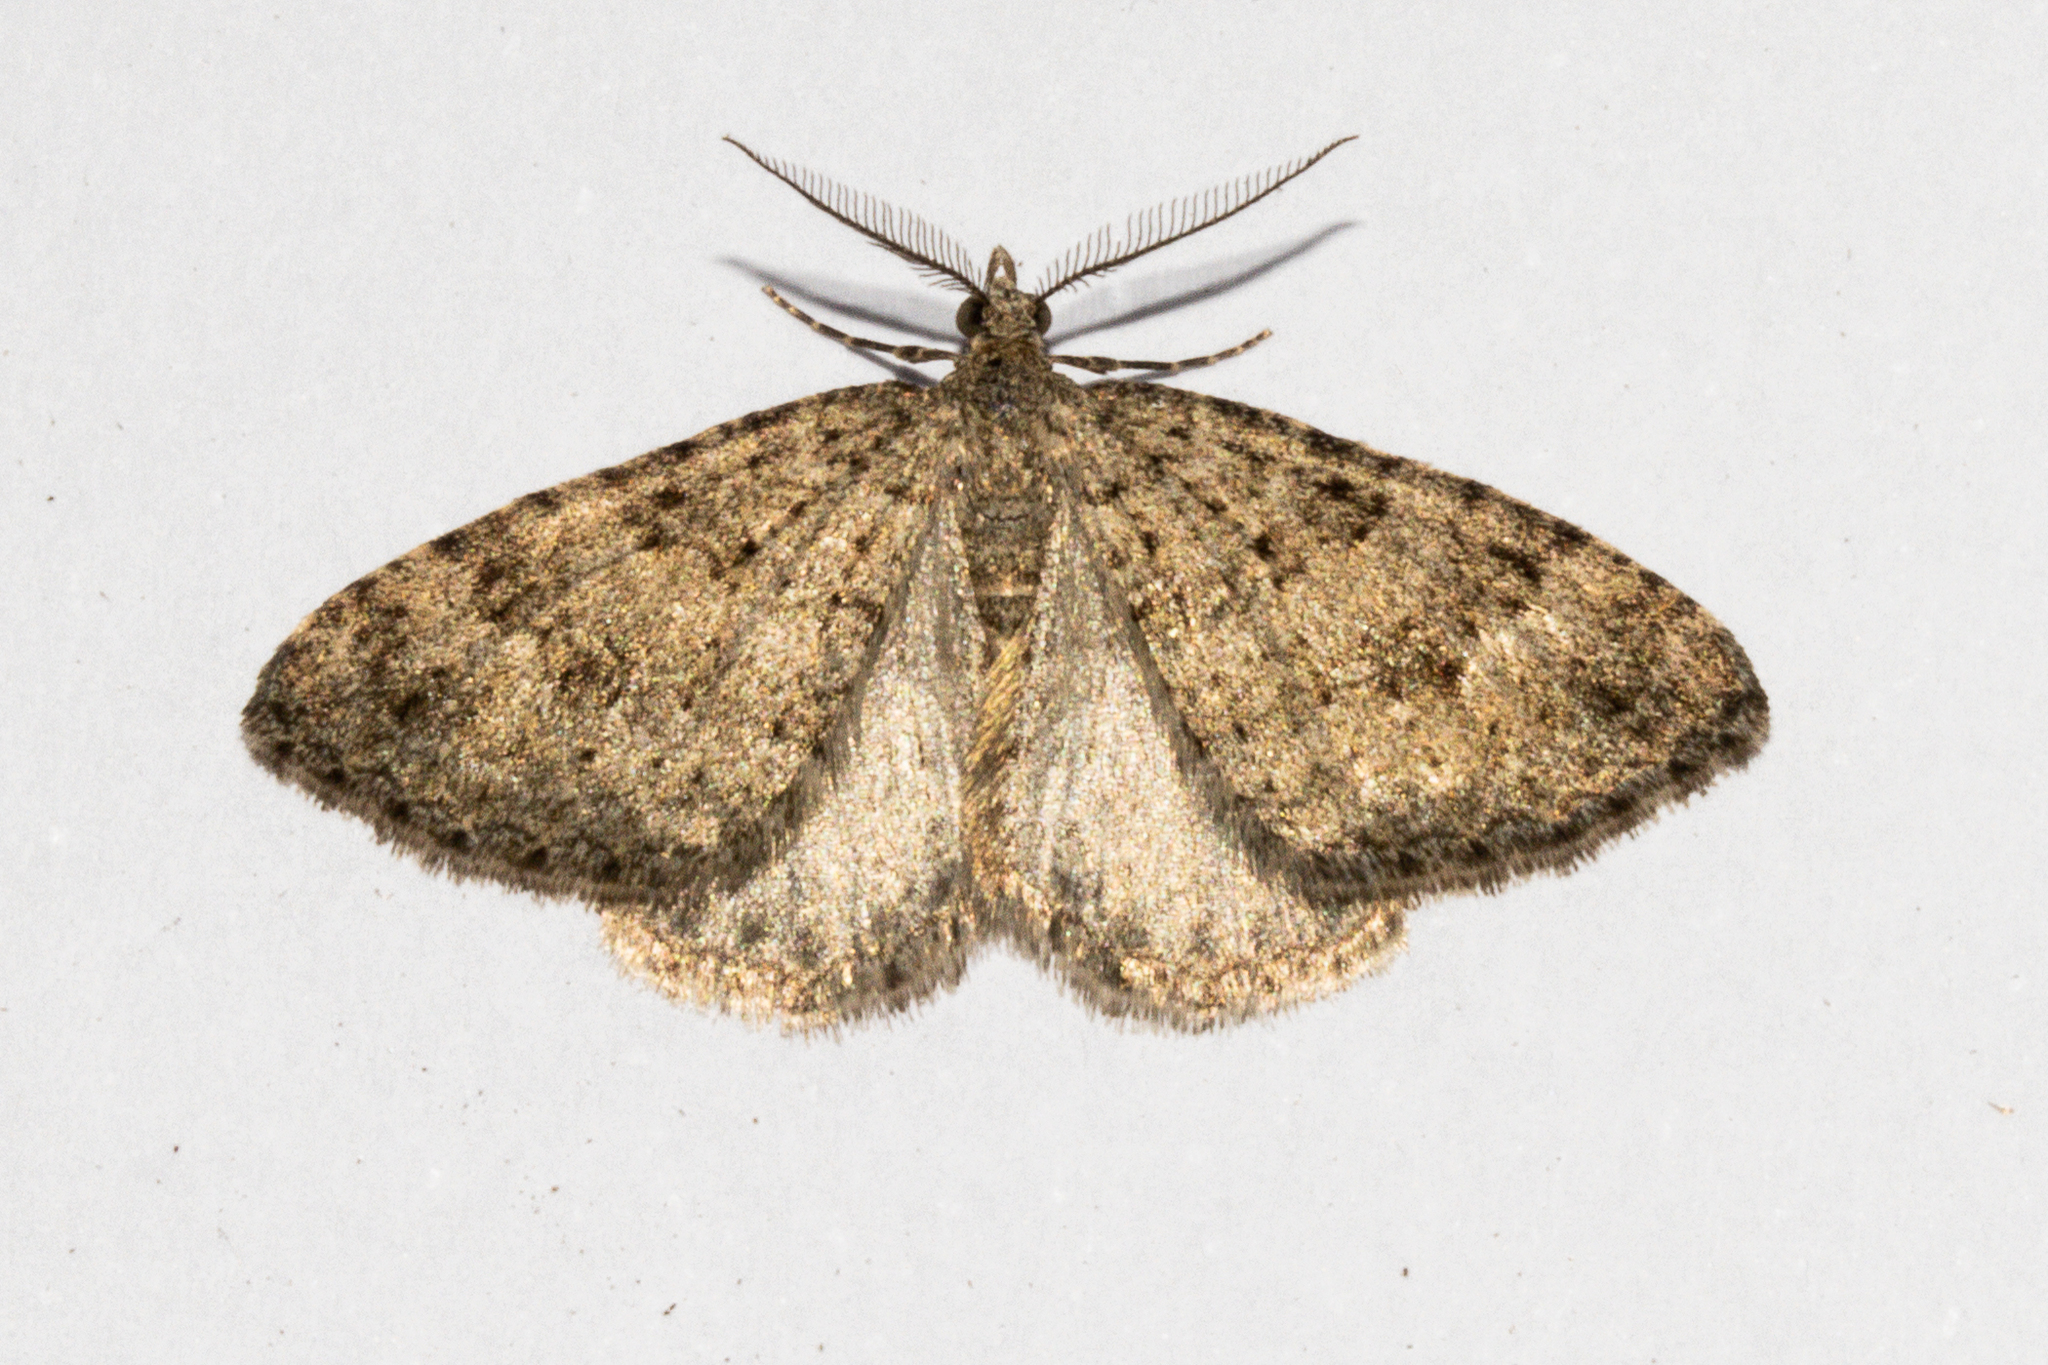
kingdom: Animalia
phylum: Arthropoda
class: Insecta
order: Lepidoptera
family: Geometridae
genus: Helastia
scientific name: Helastia corcularia
